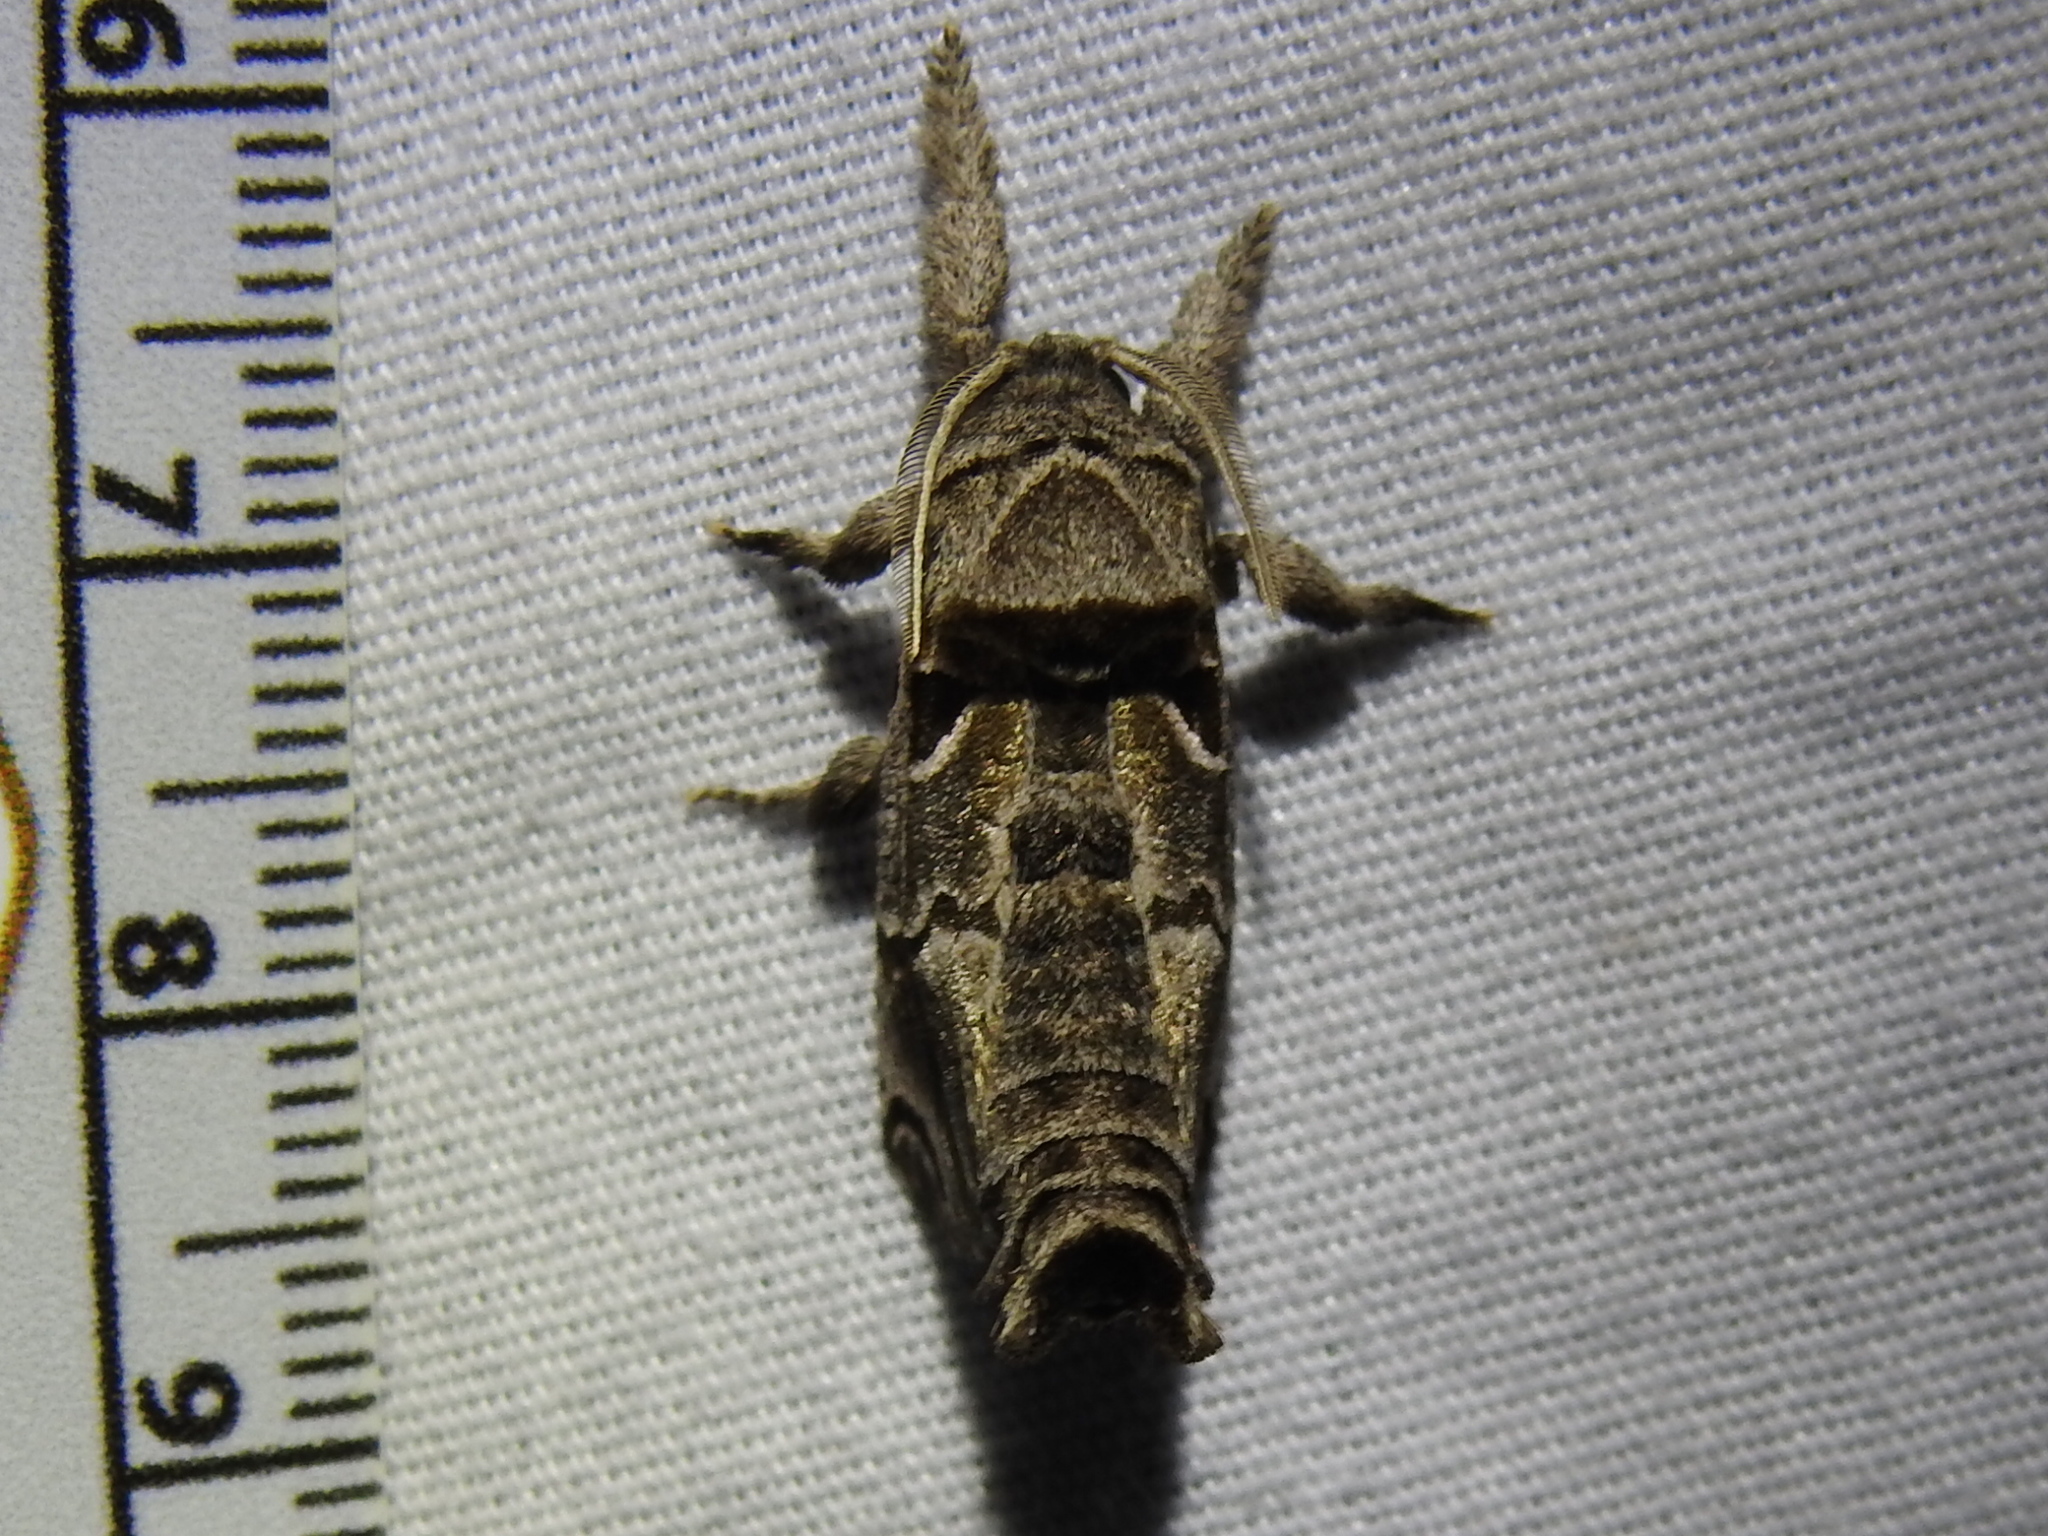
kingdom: Animalia
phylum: Arthropoda
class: Insecta
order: Lepidoptera
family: Cossidae
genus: Inguromorpha
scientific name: Inguromorpha
